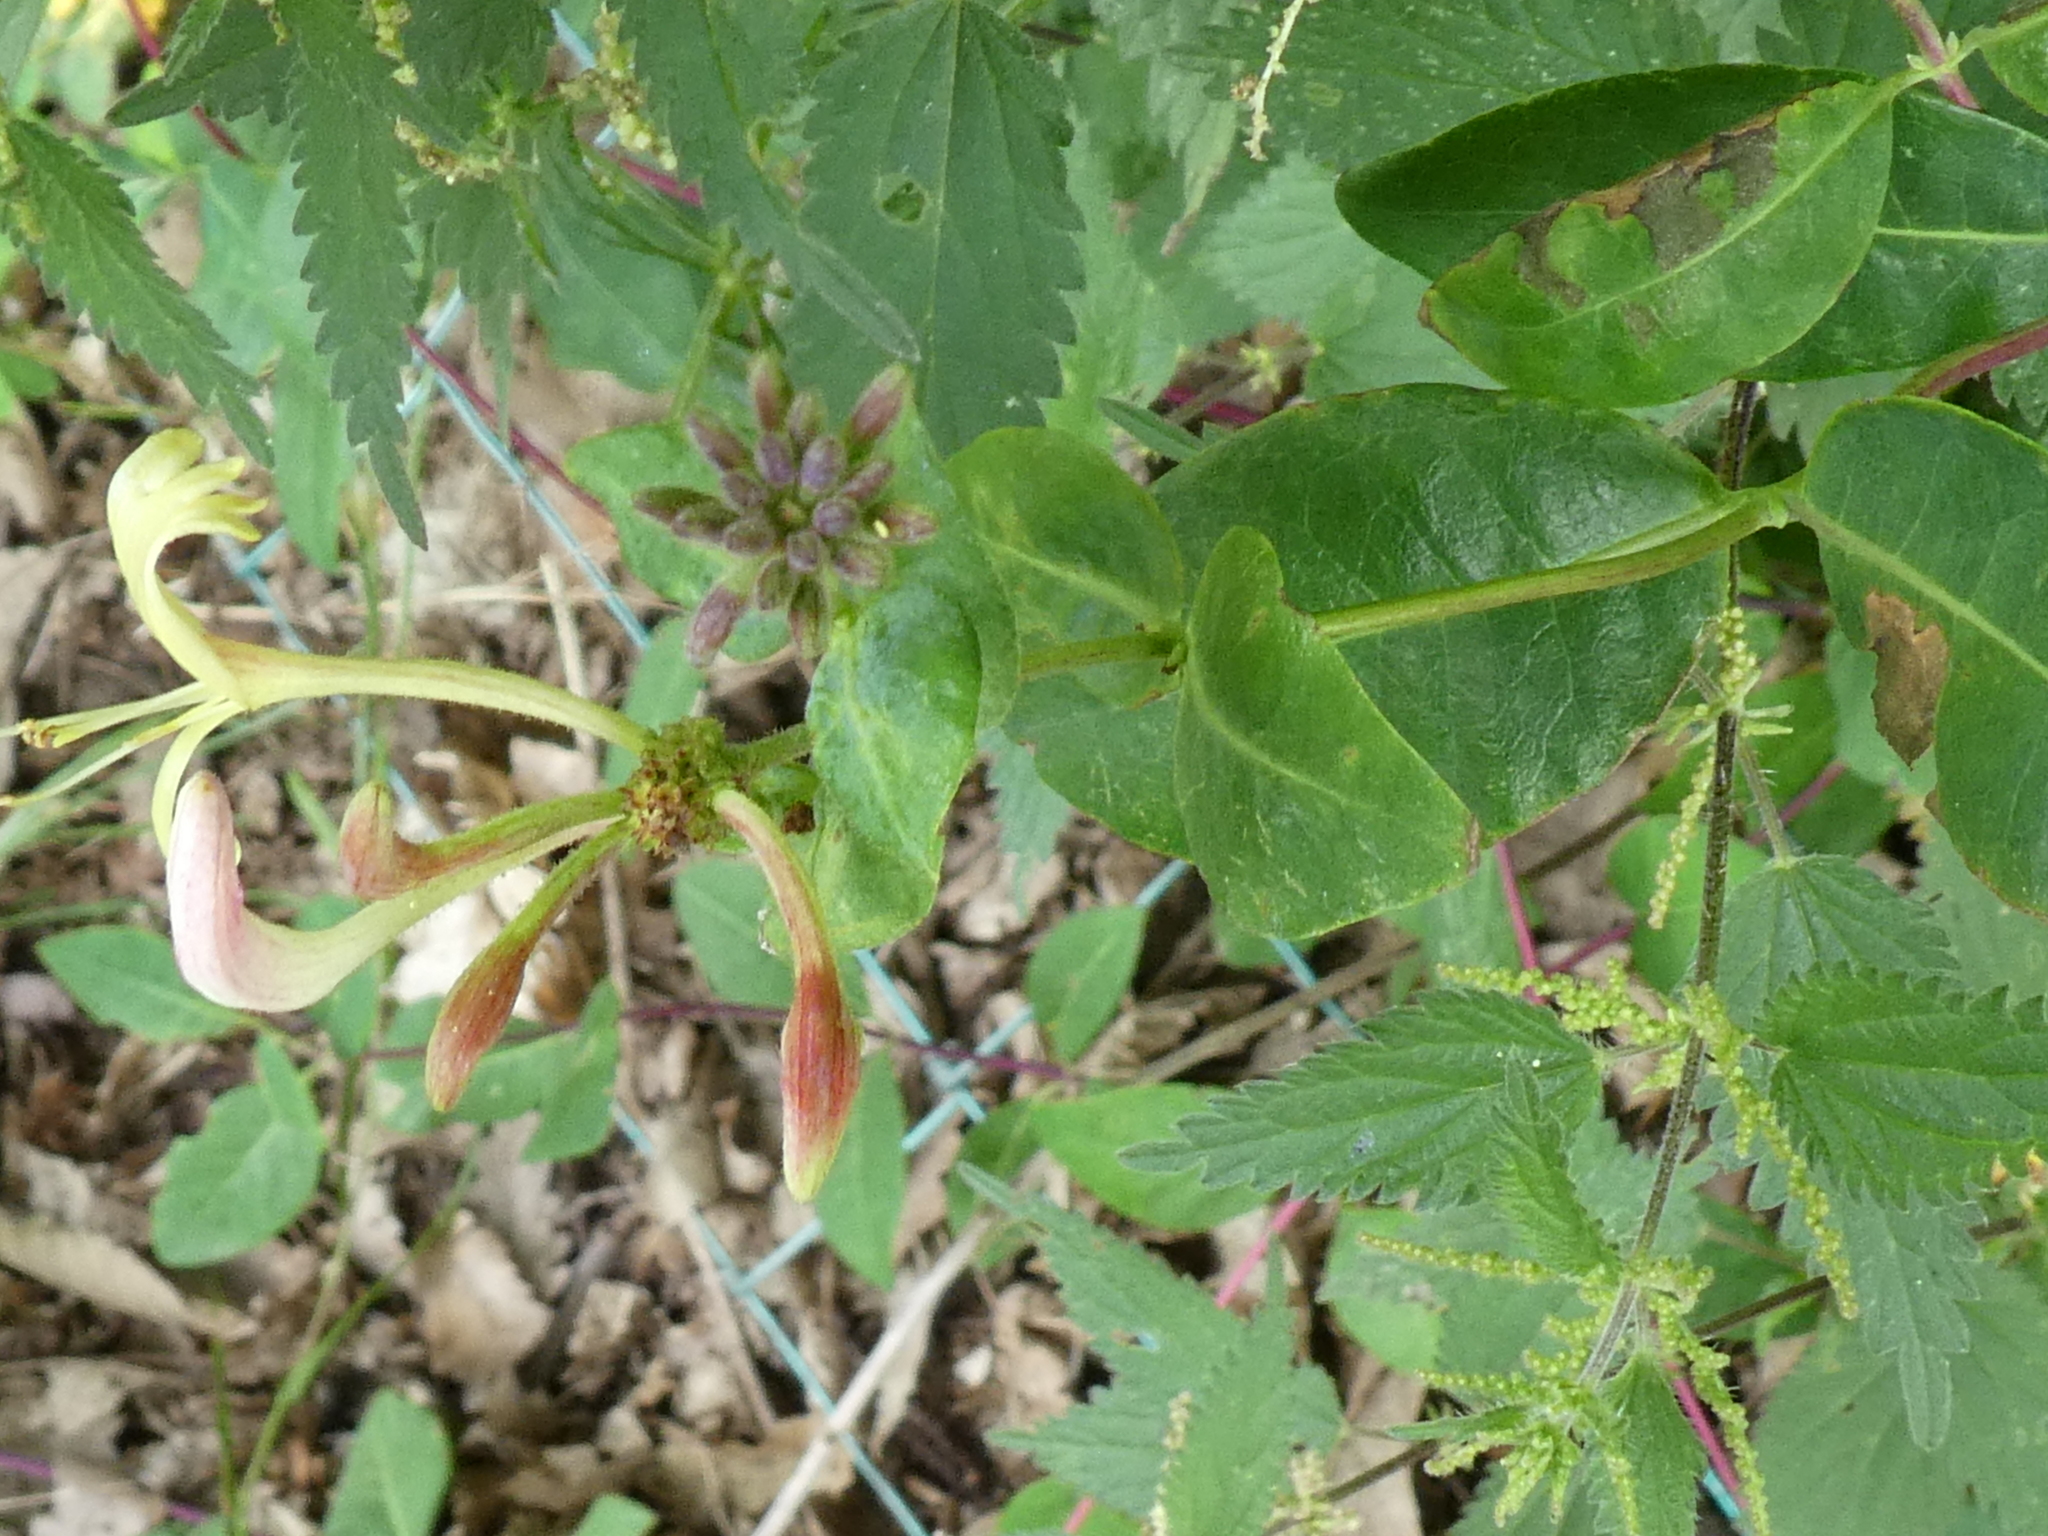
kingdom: Plantae
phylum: Tracheophyta
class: Magnoliopsida
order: Dipsacales
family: Caprifoliaceae
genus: Lonicera
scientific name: Lonicera periclymenum
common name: European honeysuckle
